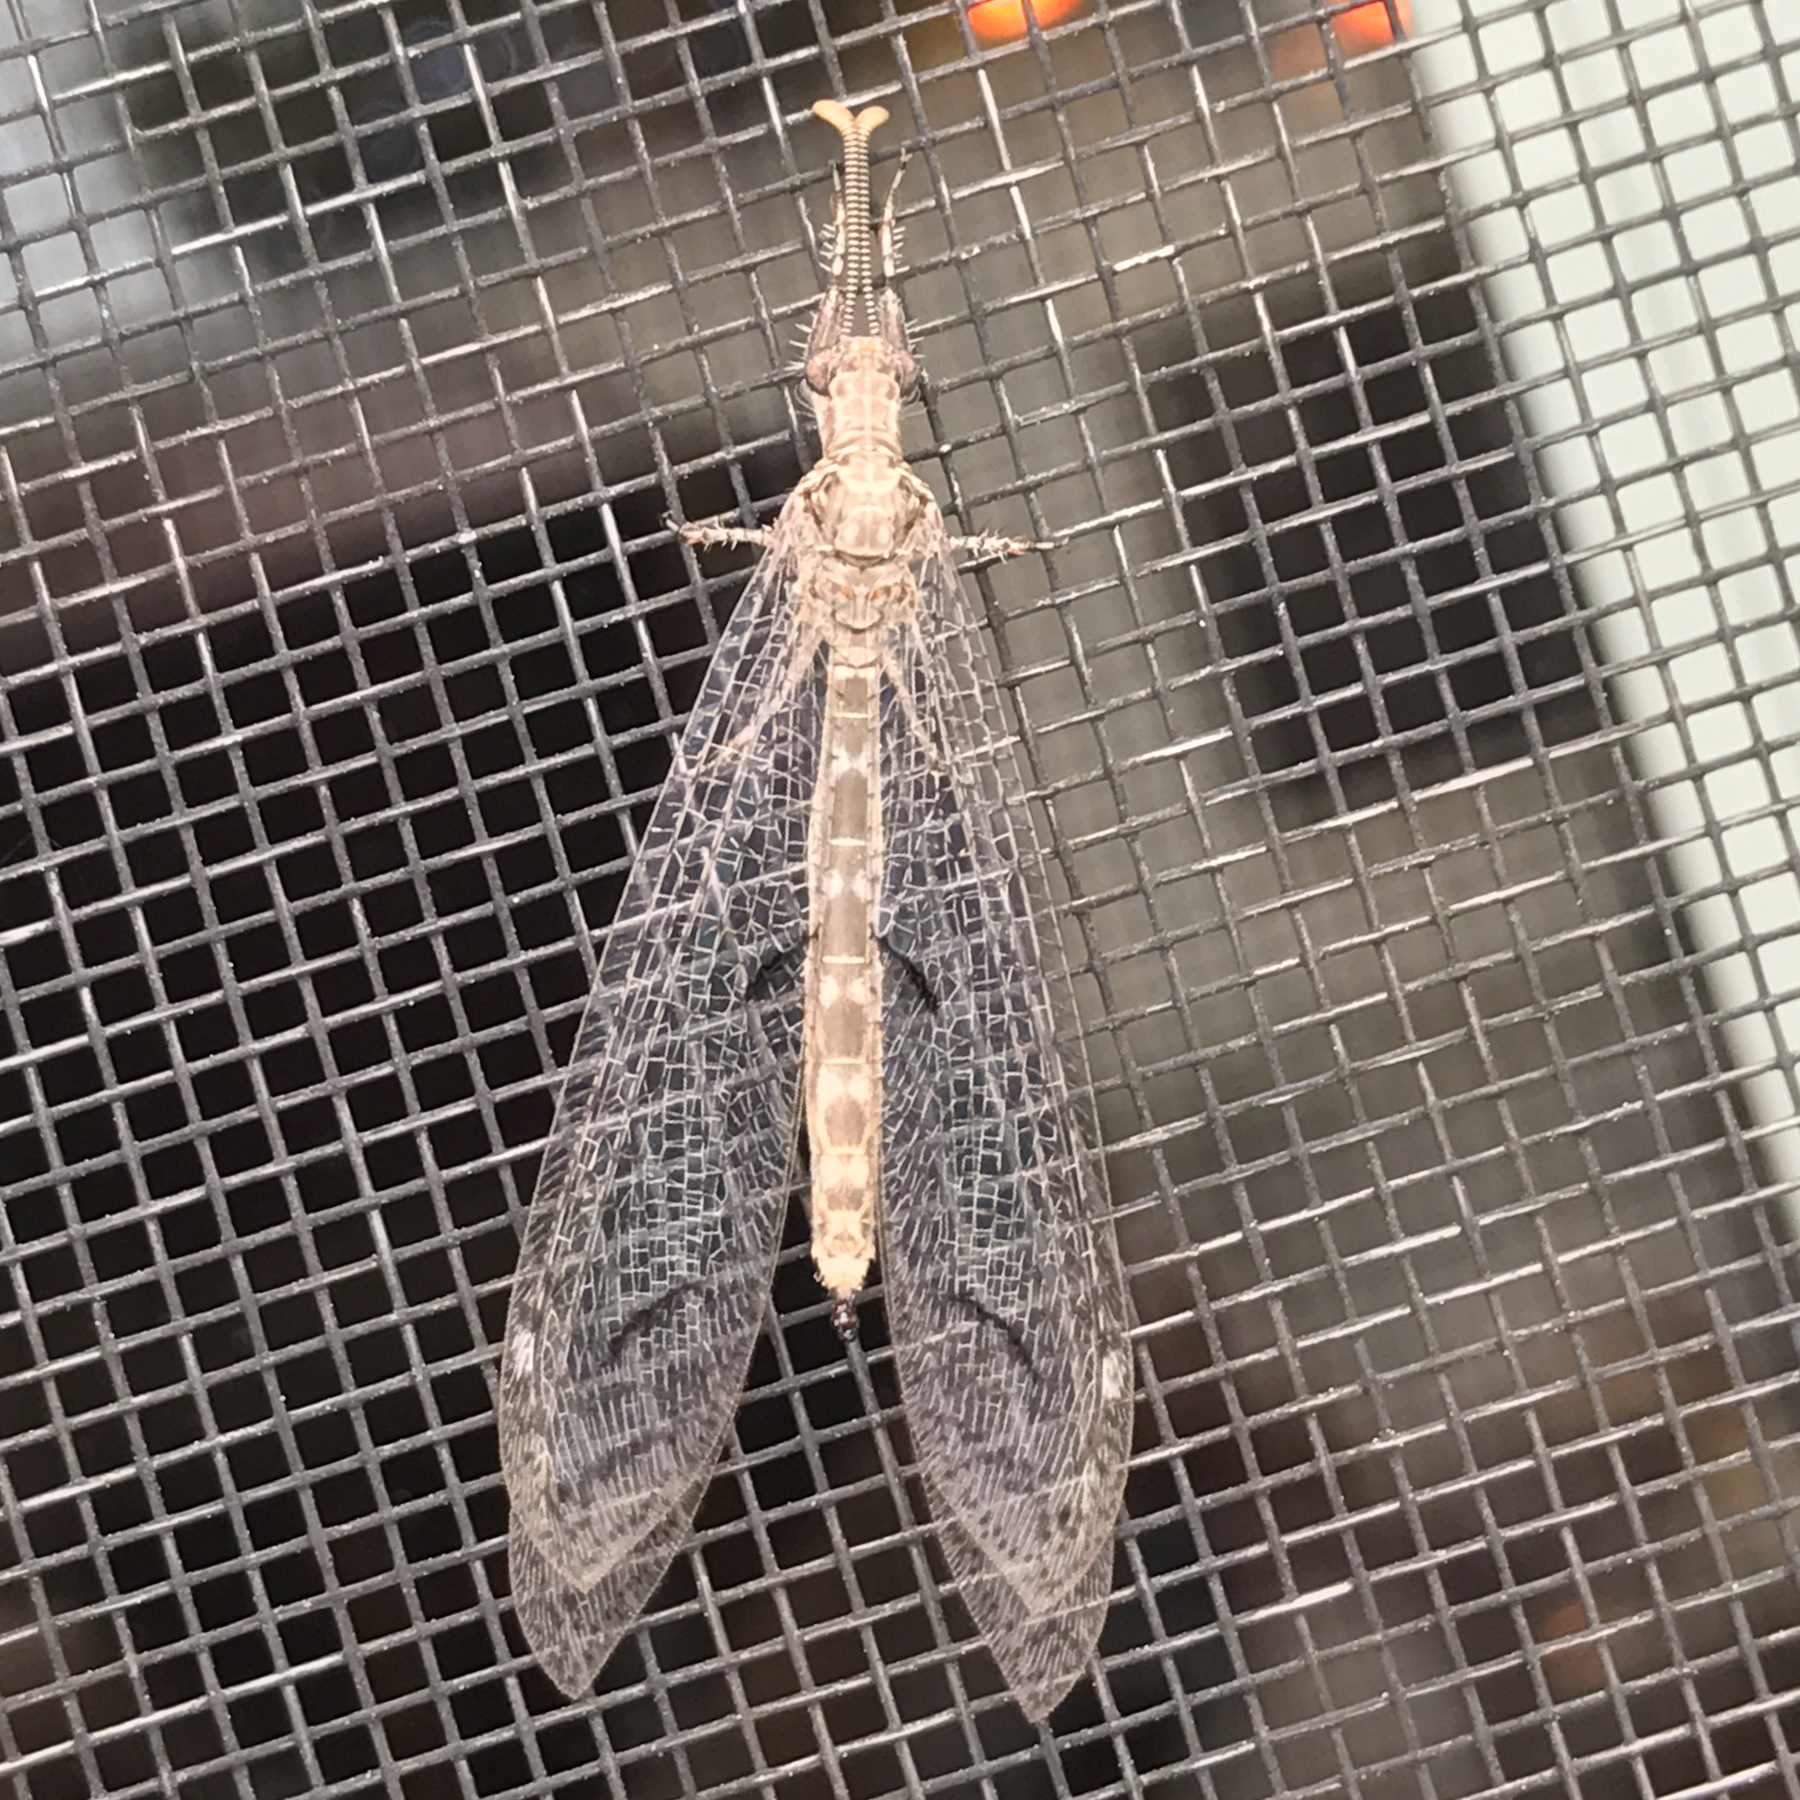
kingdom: Animalia
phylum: Arthropoda
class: Insecta
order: Neuroptera
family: Myrmeleontidae
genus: Euptilon
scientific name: Euptilon ornatum
